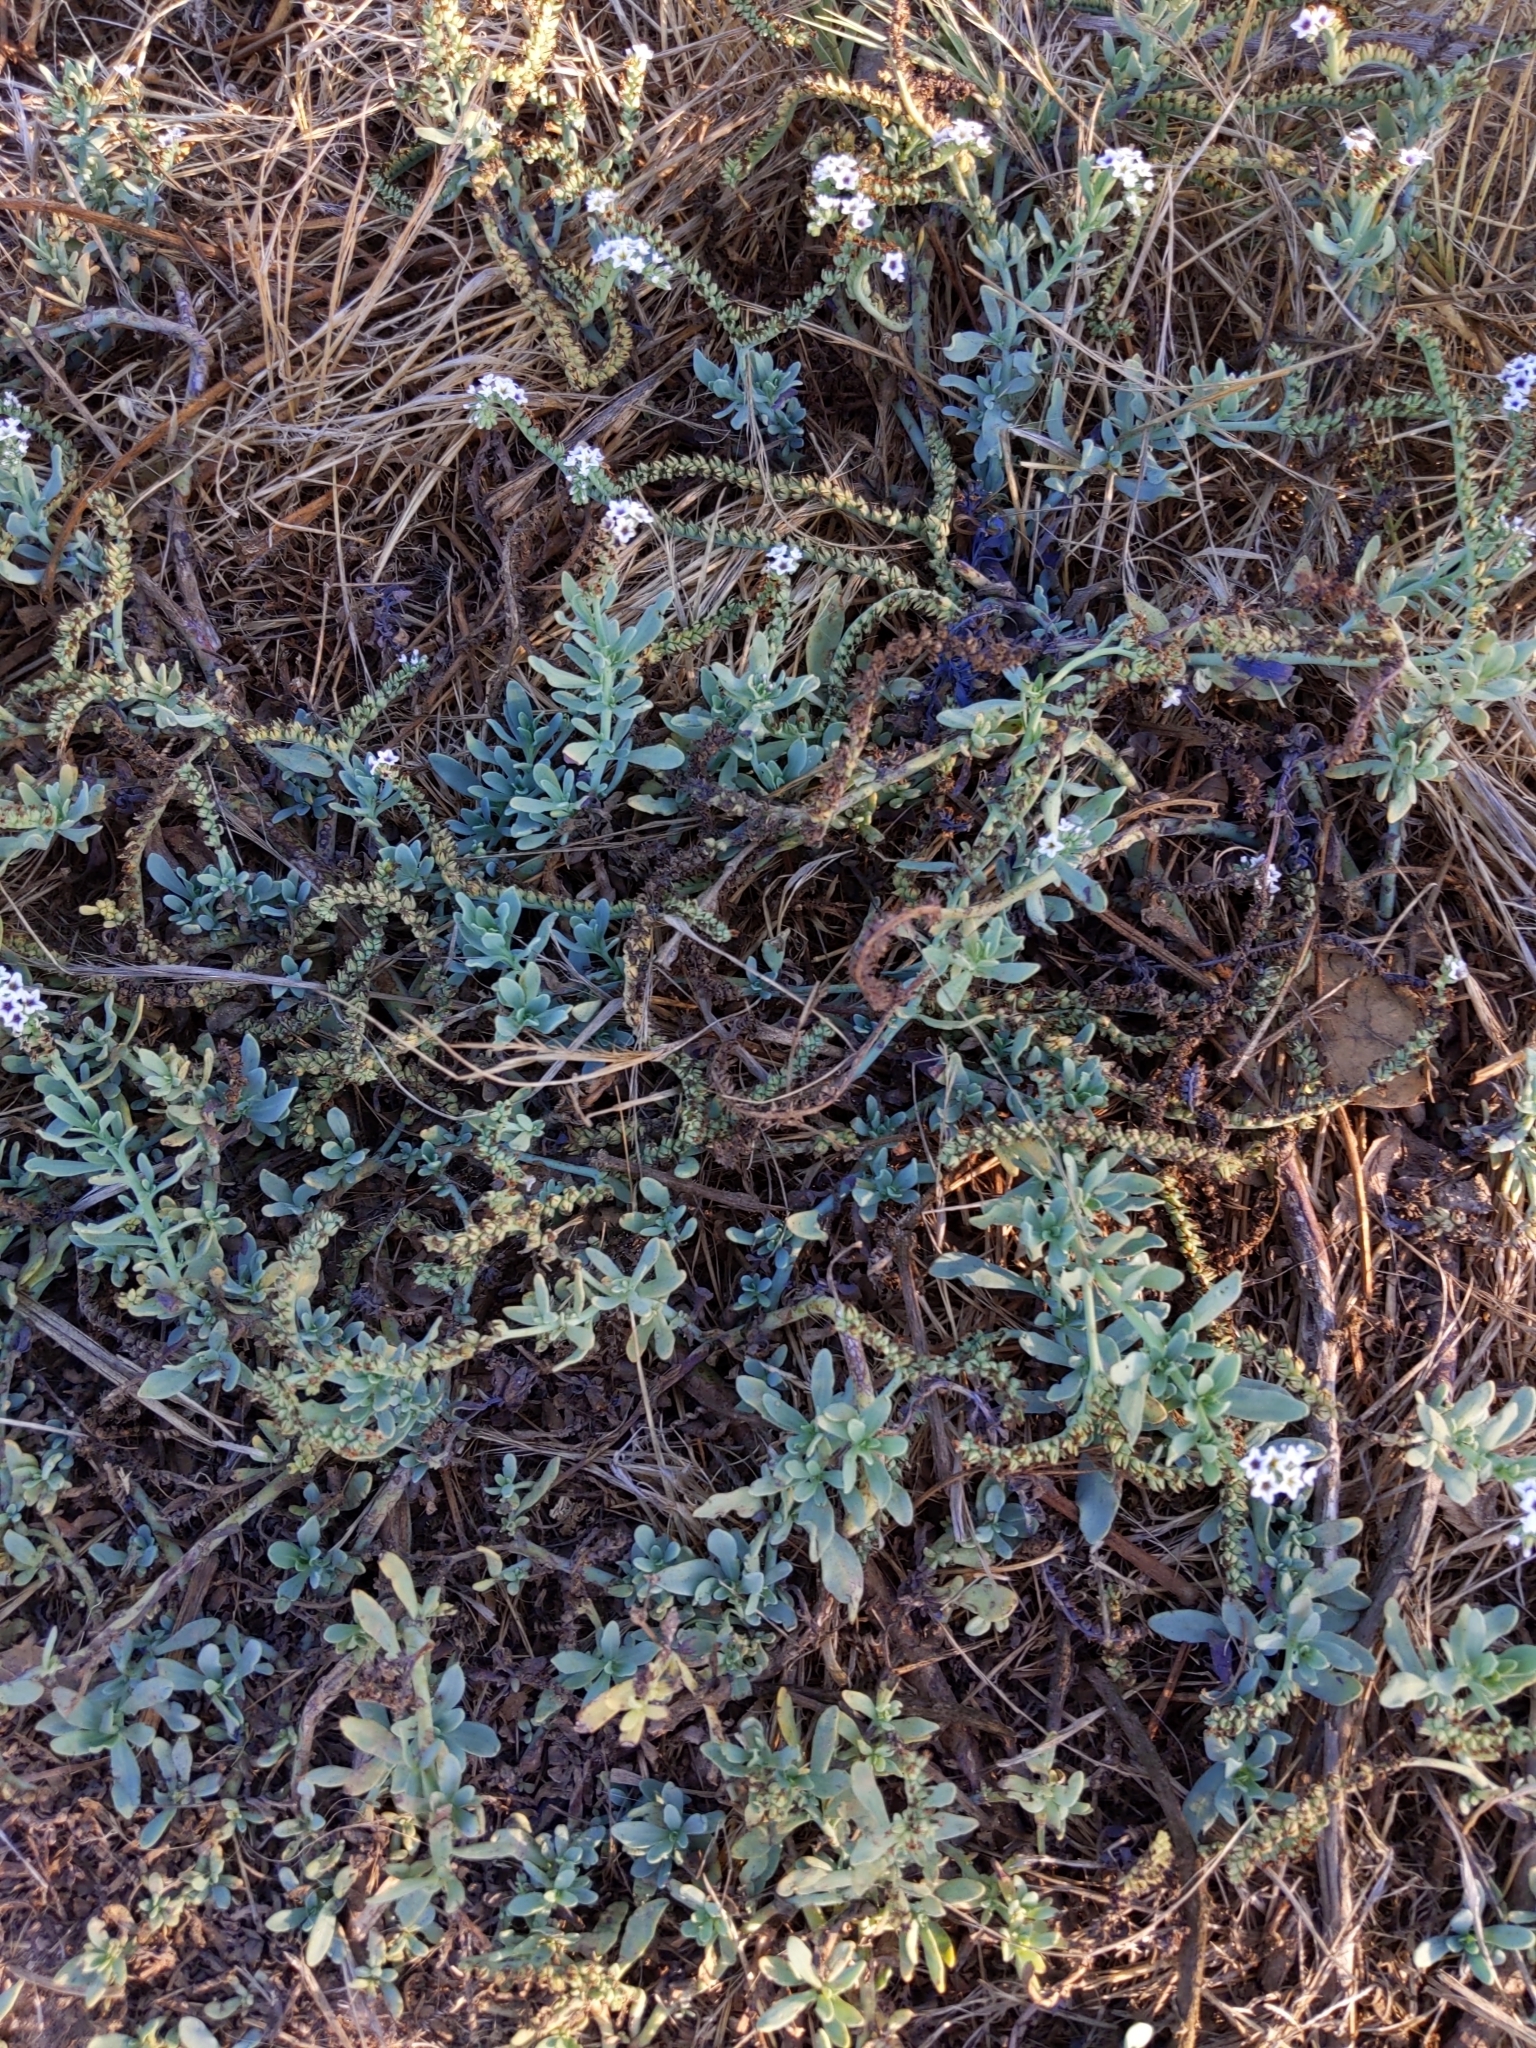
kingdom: Plantae
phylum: Tracheophyta
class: Magnoliopsida
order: Boraginales
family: Heliotropiaceae
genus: Heliotropium
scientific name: Heliotropium curassavicum
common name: Seaside heliotrope
